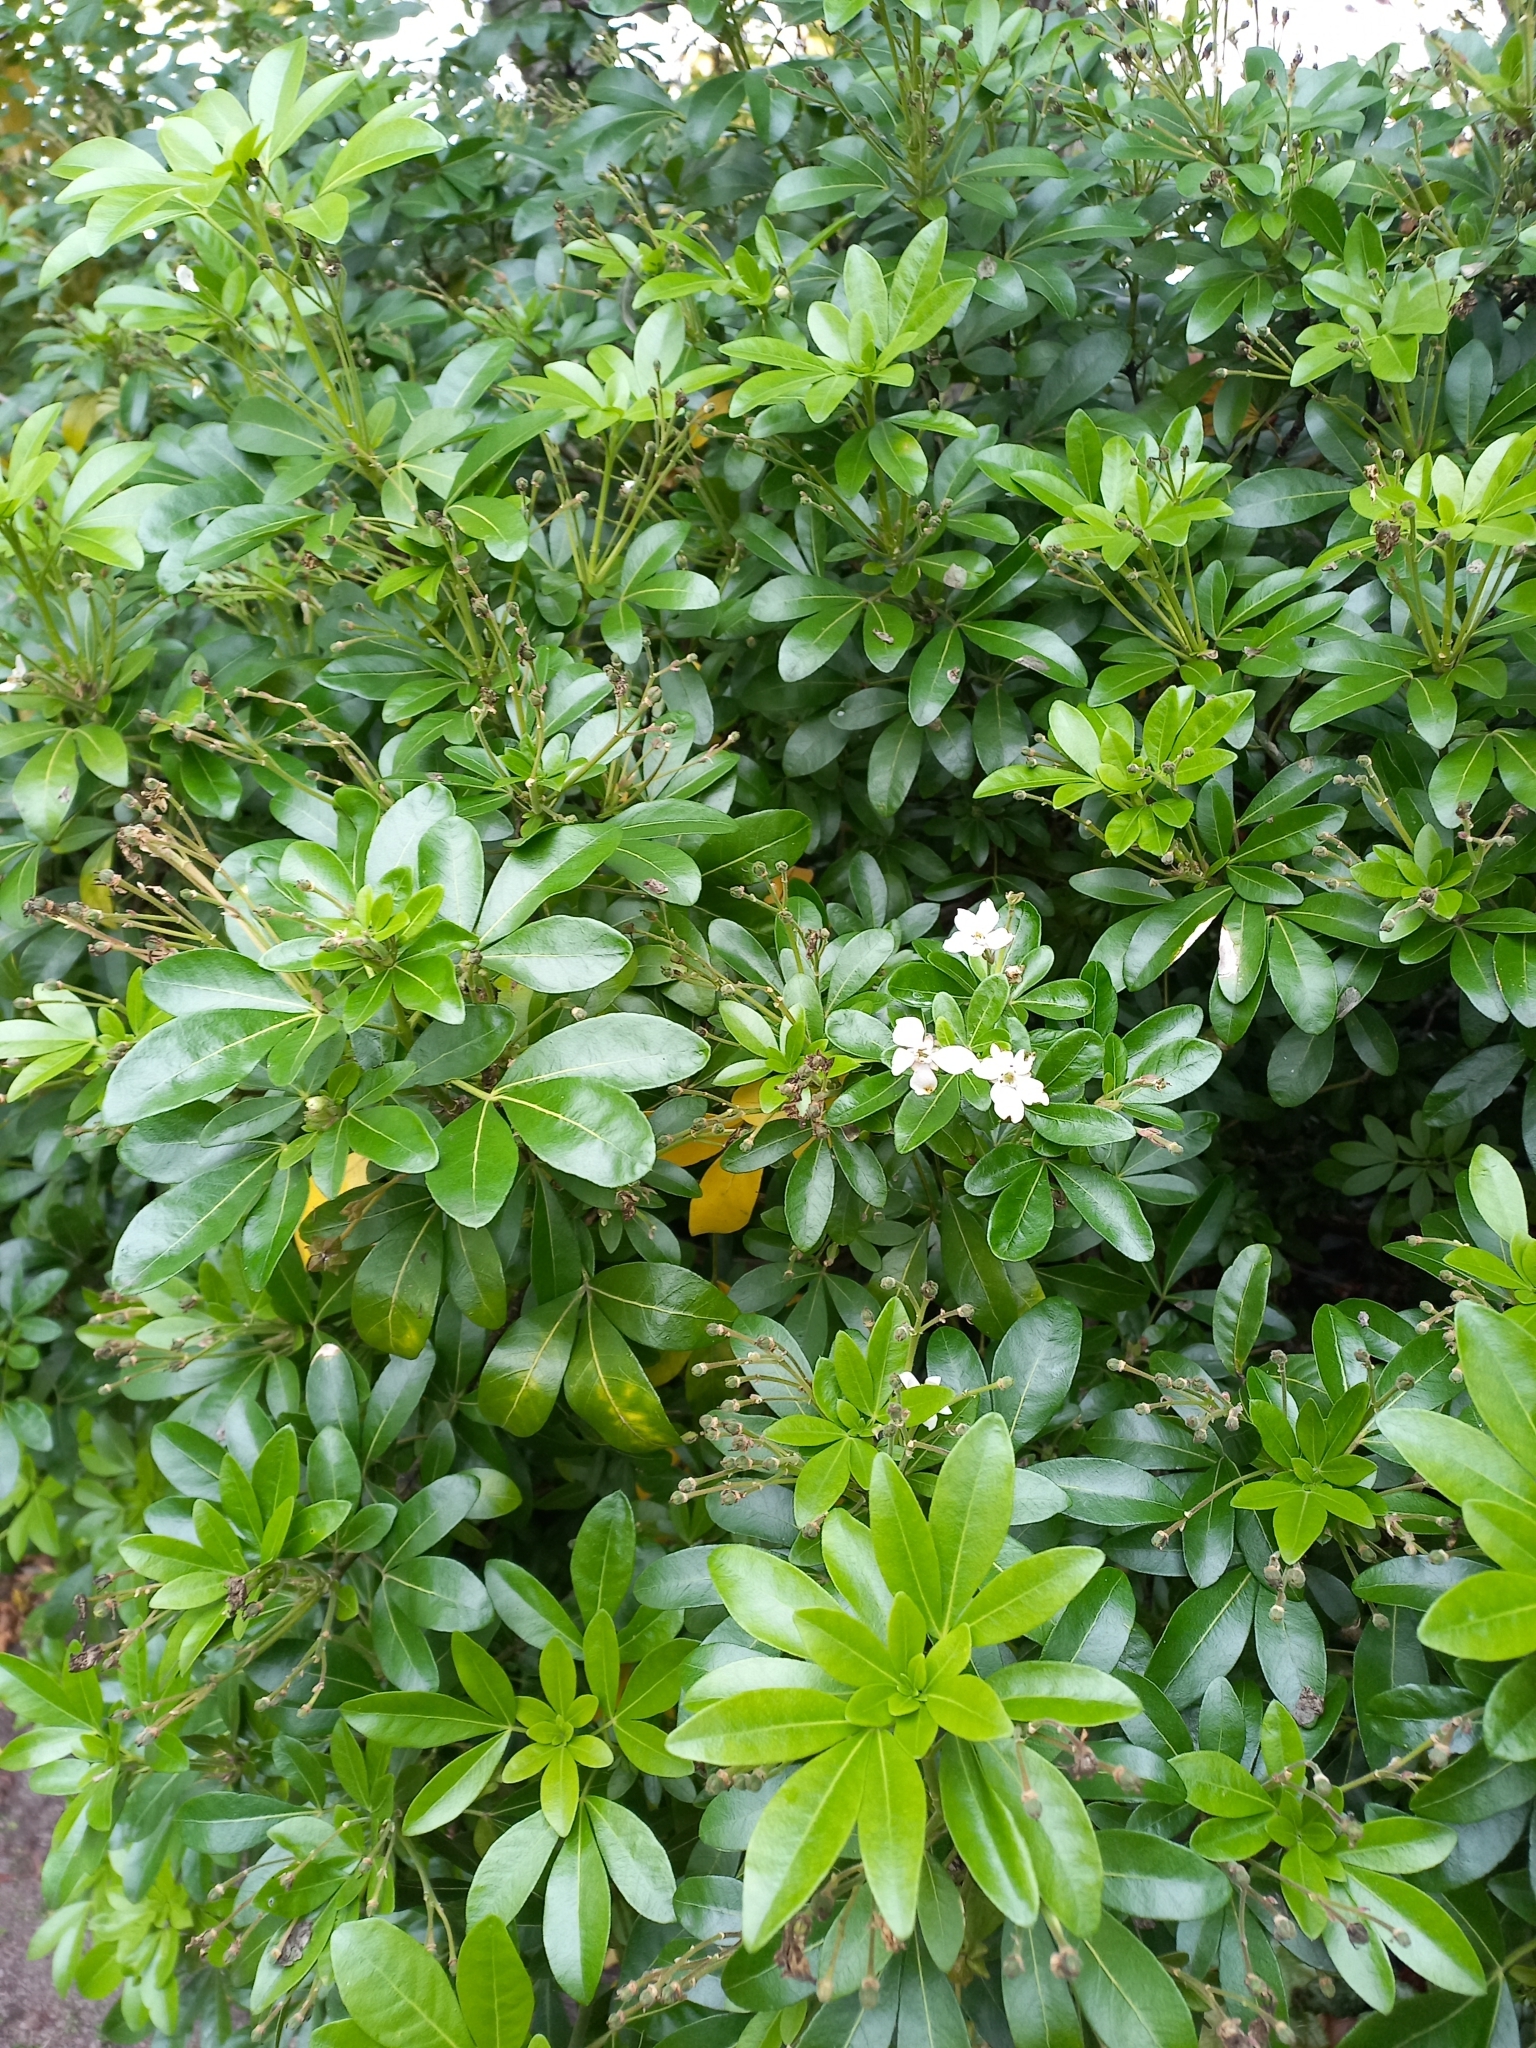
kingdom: Plantae
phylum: Tracheophyta
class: Magnoliopsida
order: Sapindales
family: Rutaceae
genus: Choisya
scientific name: Choisya ternata
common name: Mexican orange
